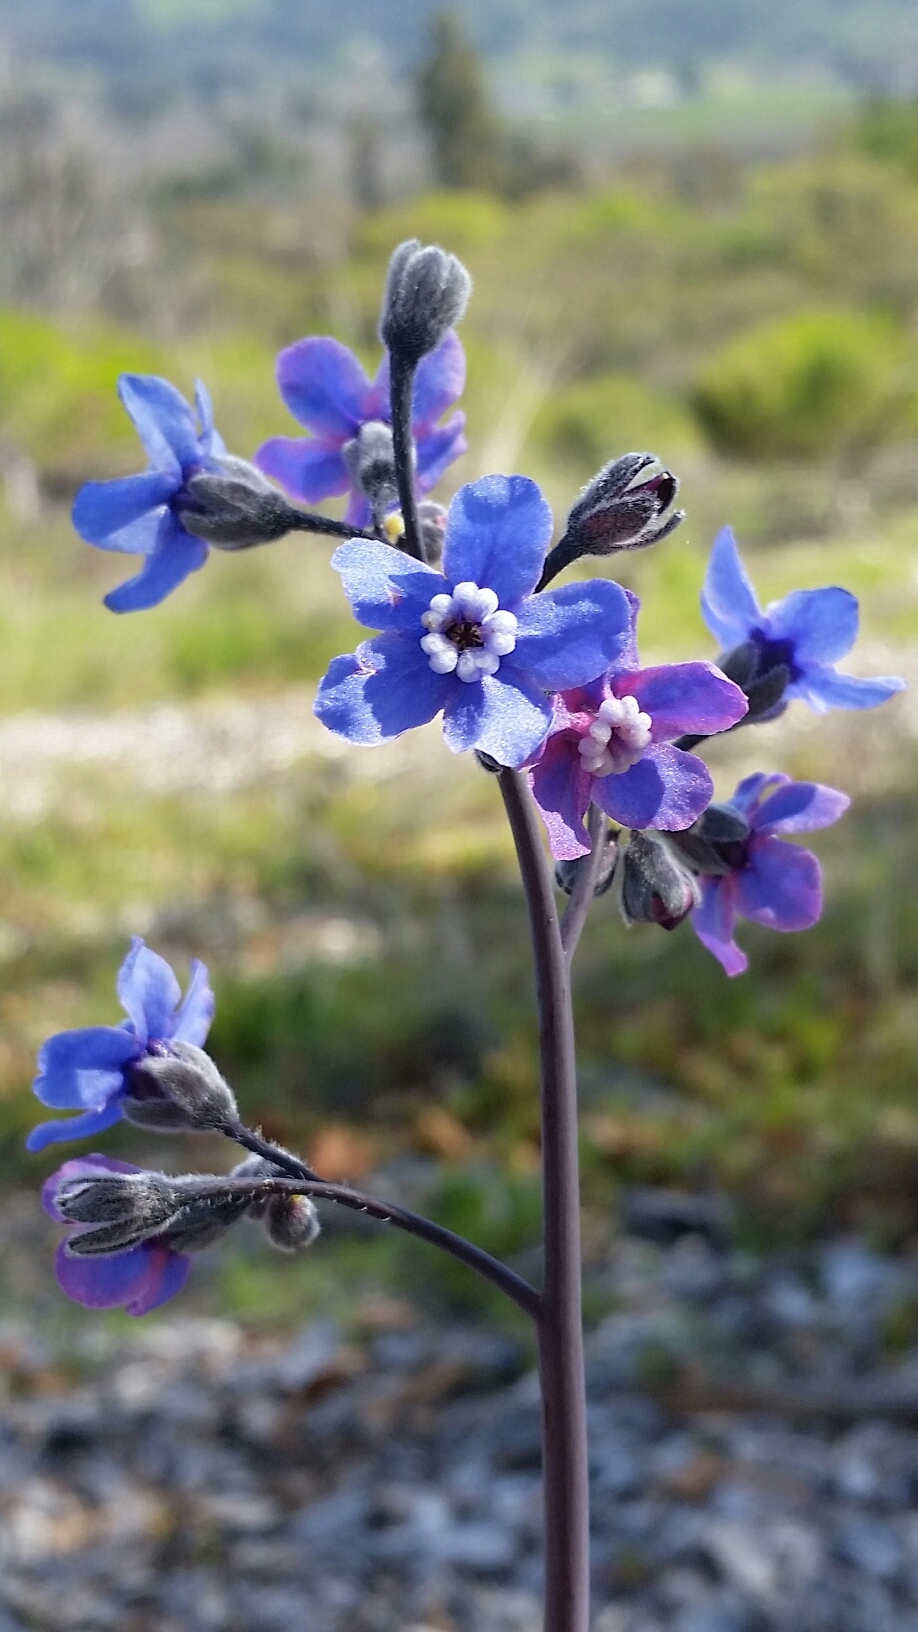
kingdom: Plantae
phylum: Tracheophyta
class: Magnoliopsida
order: Boraginales
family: Boraginaceae
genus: Adelinia
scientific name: Adelinia grande
